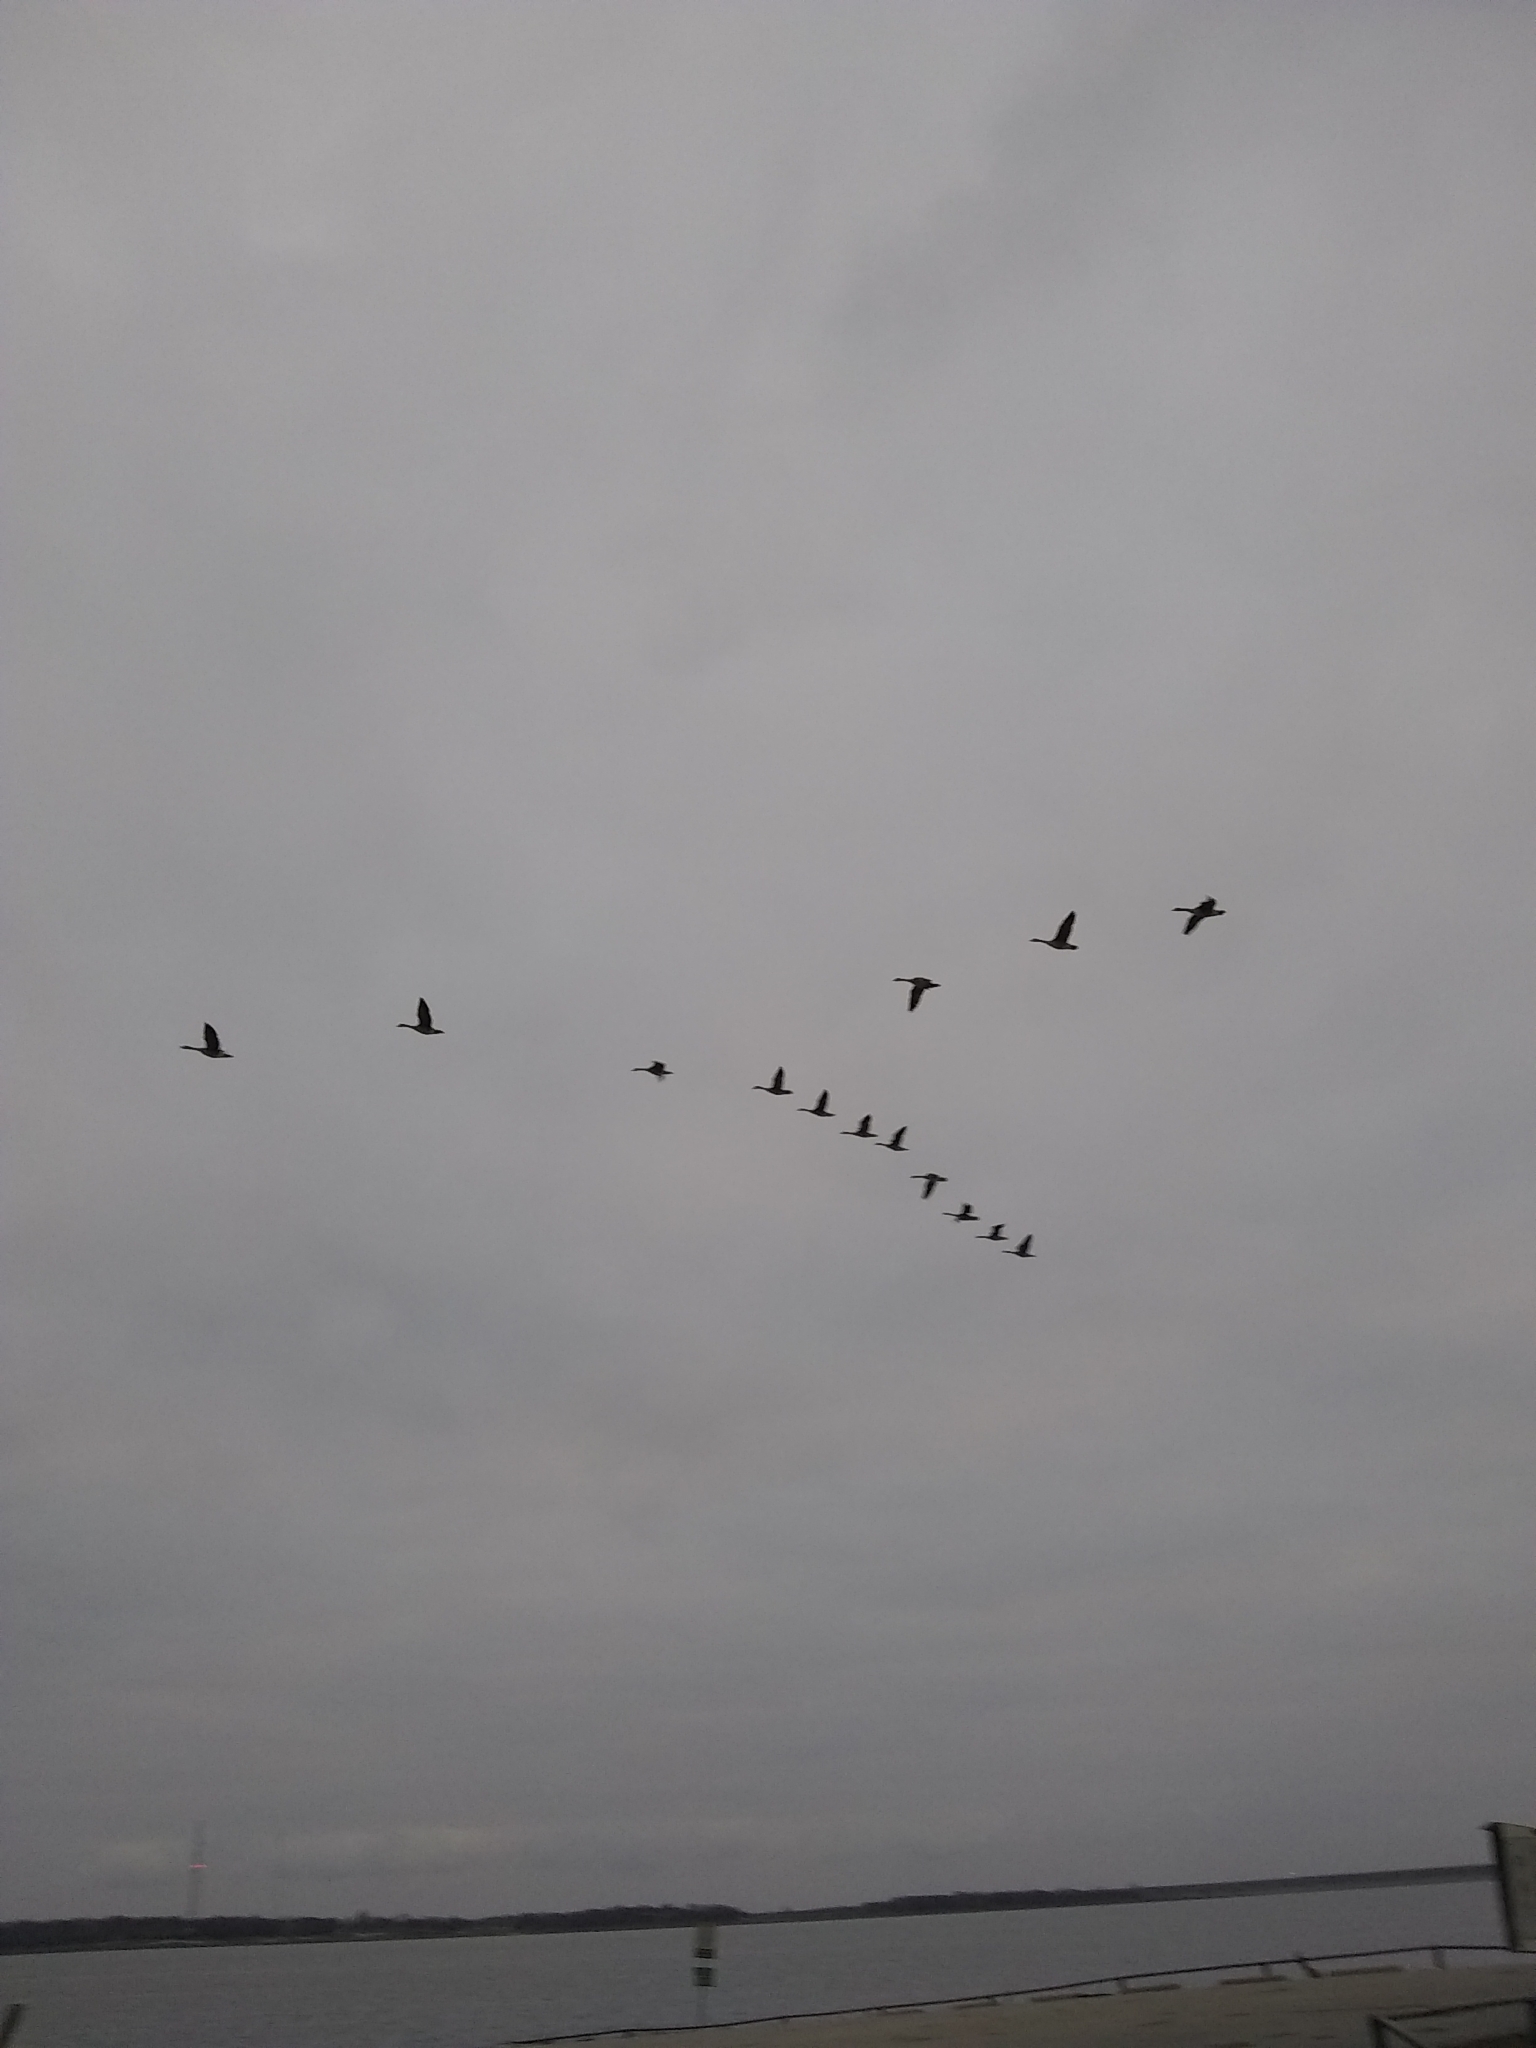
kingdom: Animalia
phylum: Chordata
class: Aves
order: Anseriformes
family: Anatidae
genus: Branta
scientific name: Branta canadensis
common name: Canada goose
